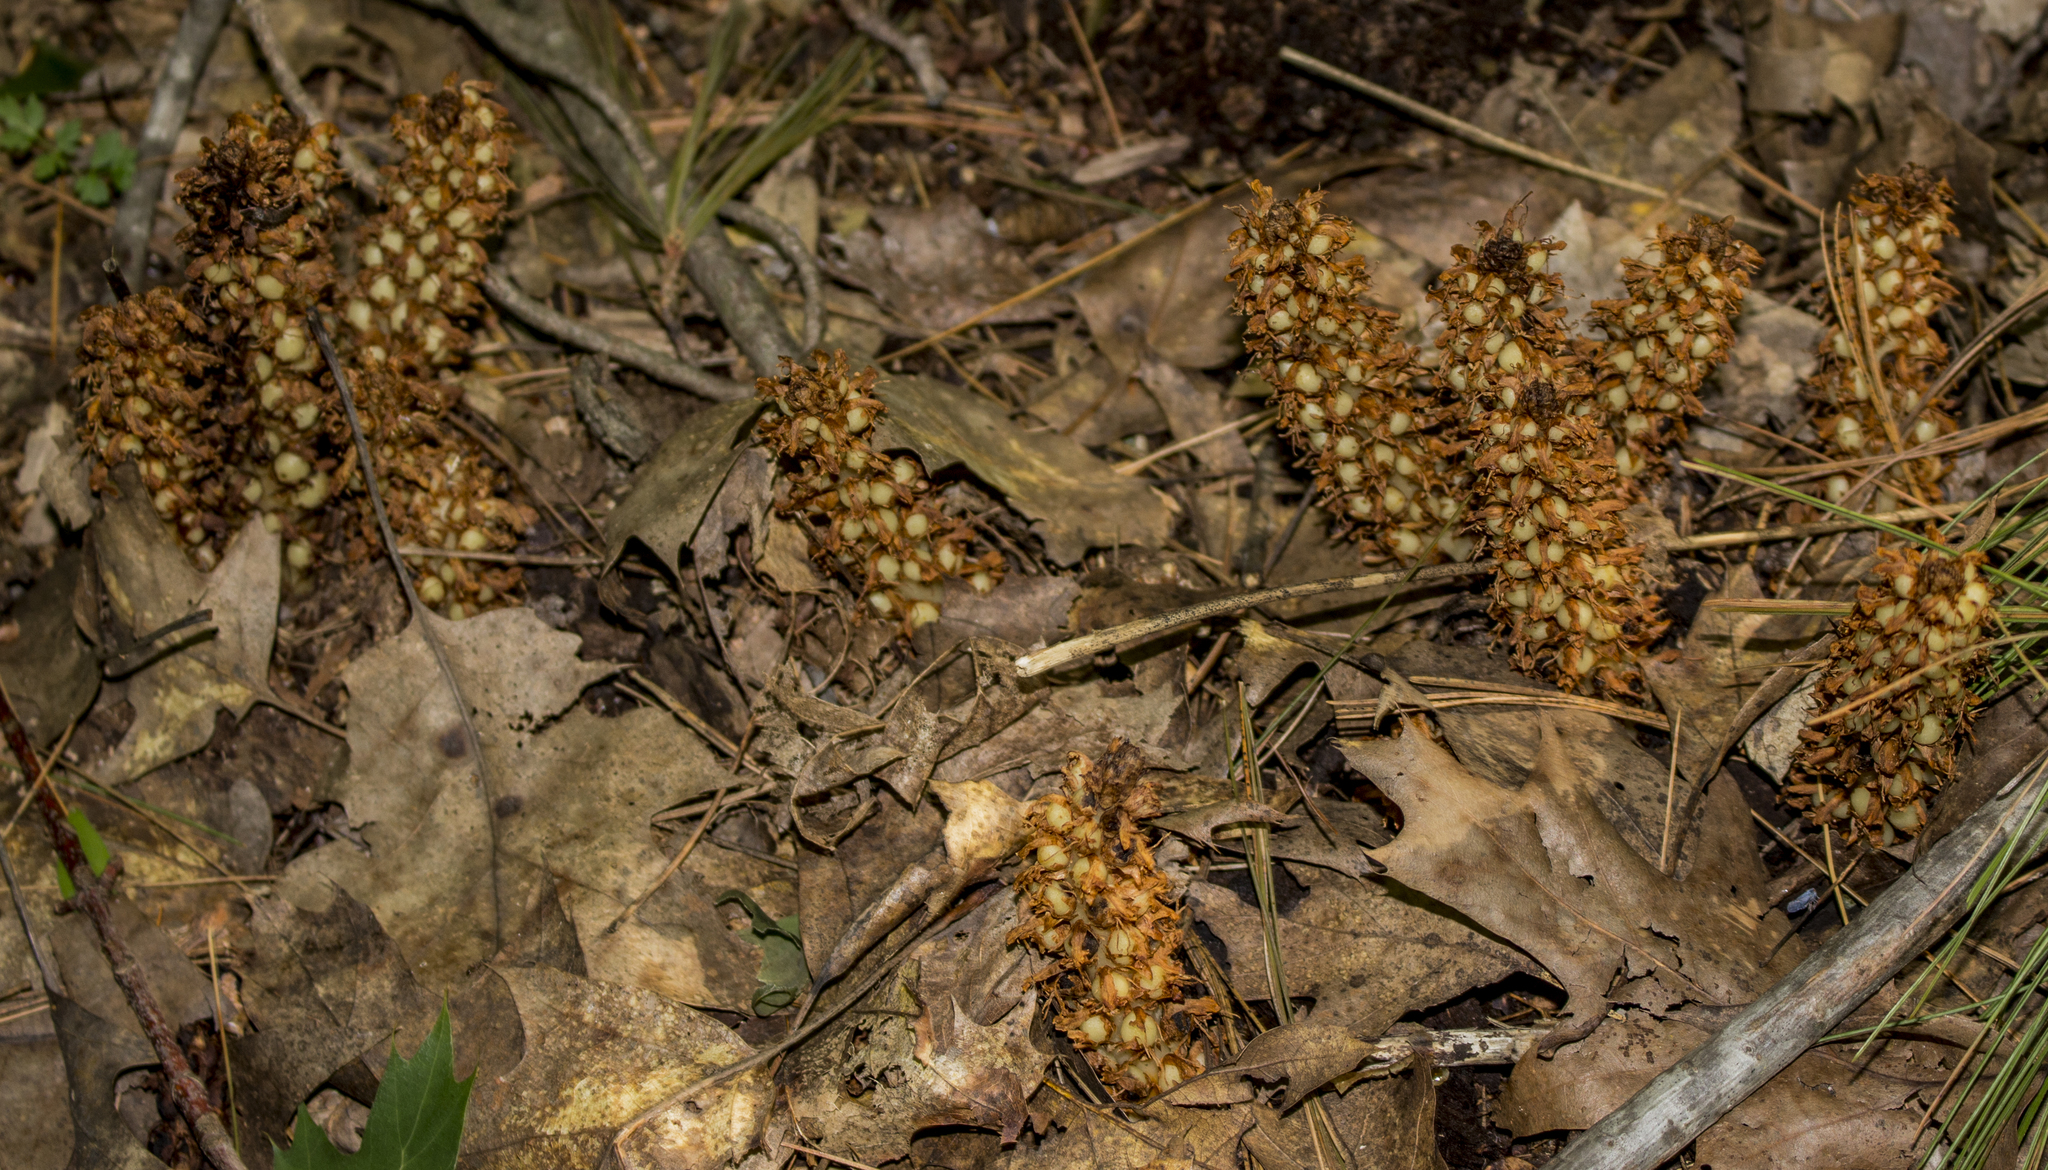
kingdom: Plantae
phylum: Tracheophyta
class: Magnoliopsida
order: Lamiales
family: Orobanchaceae
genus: Conopholis
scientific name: Conopholis americana
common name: American cancer-root
